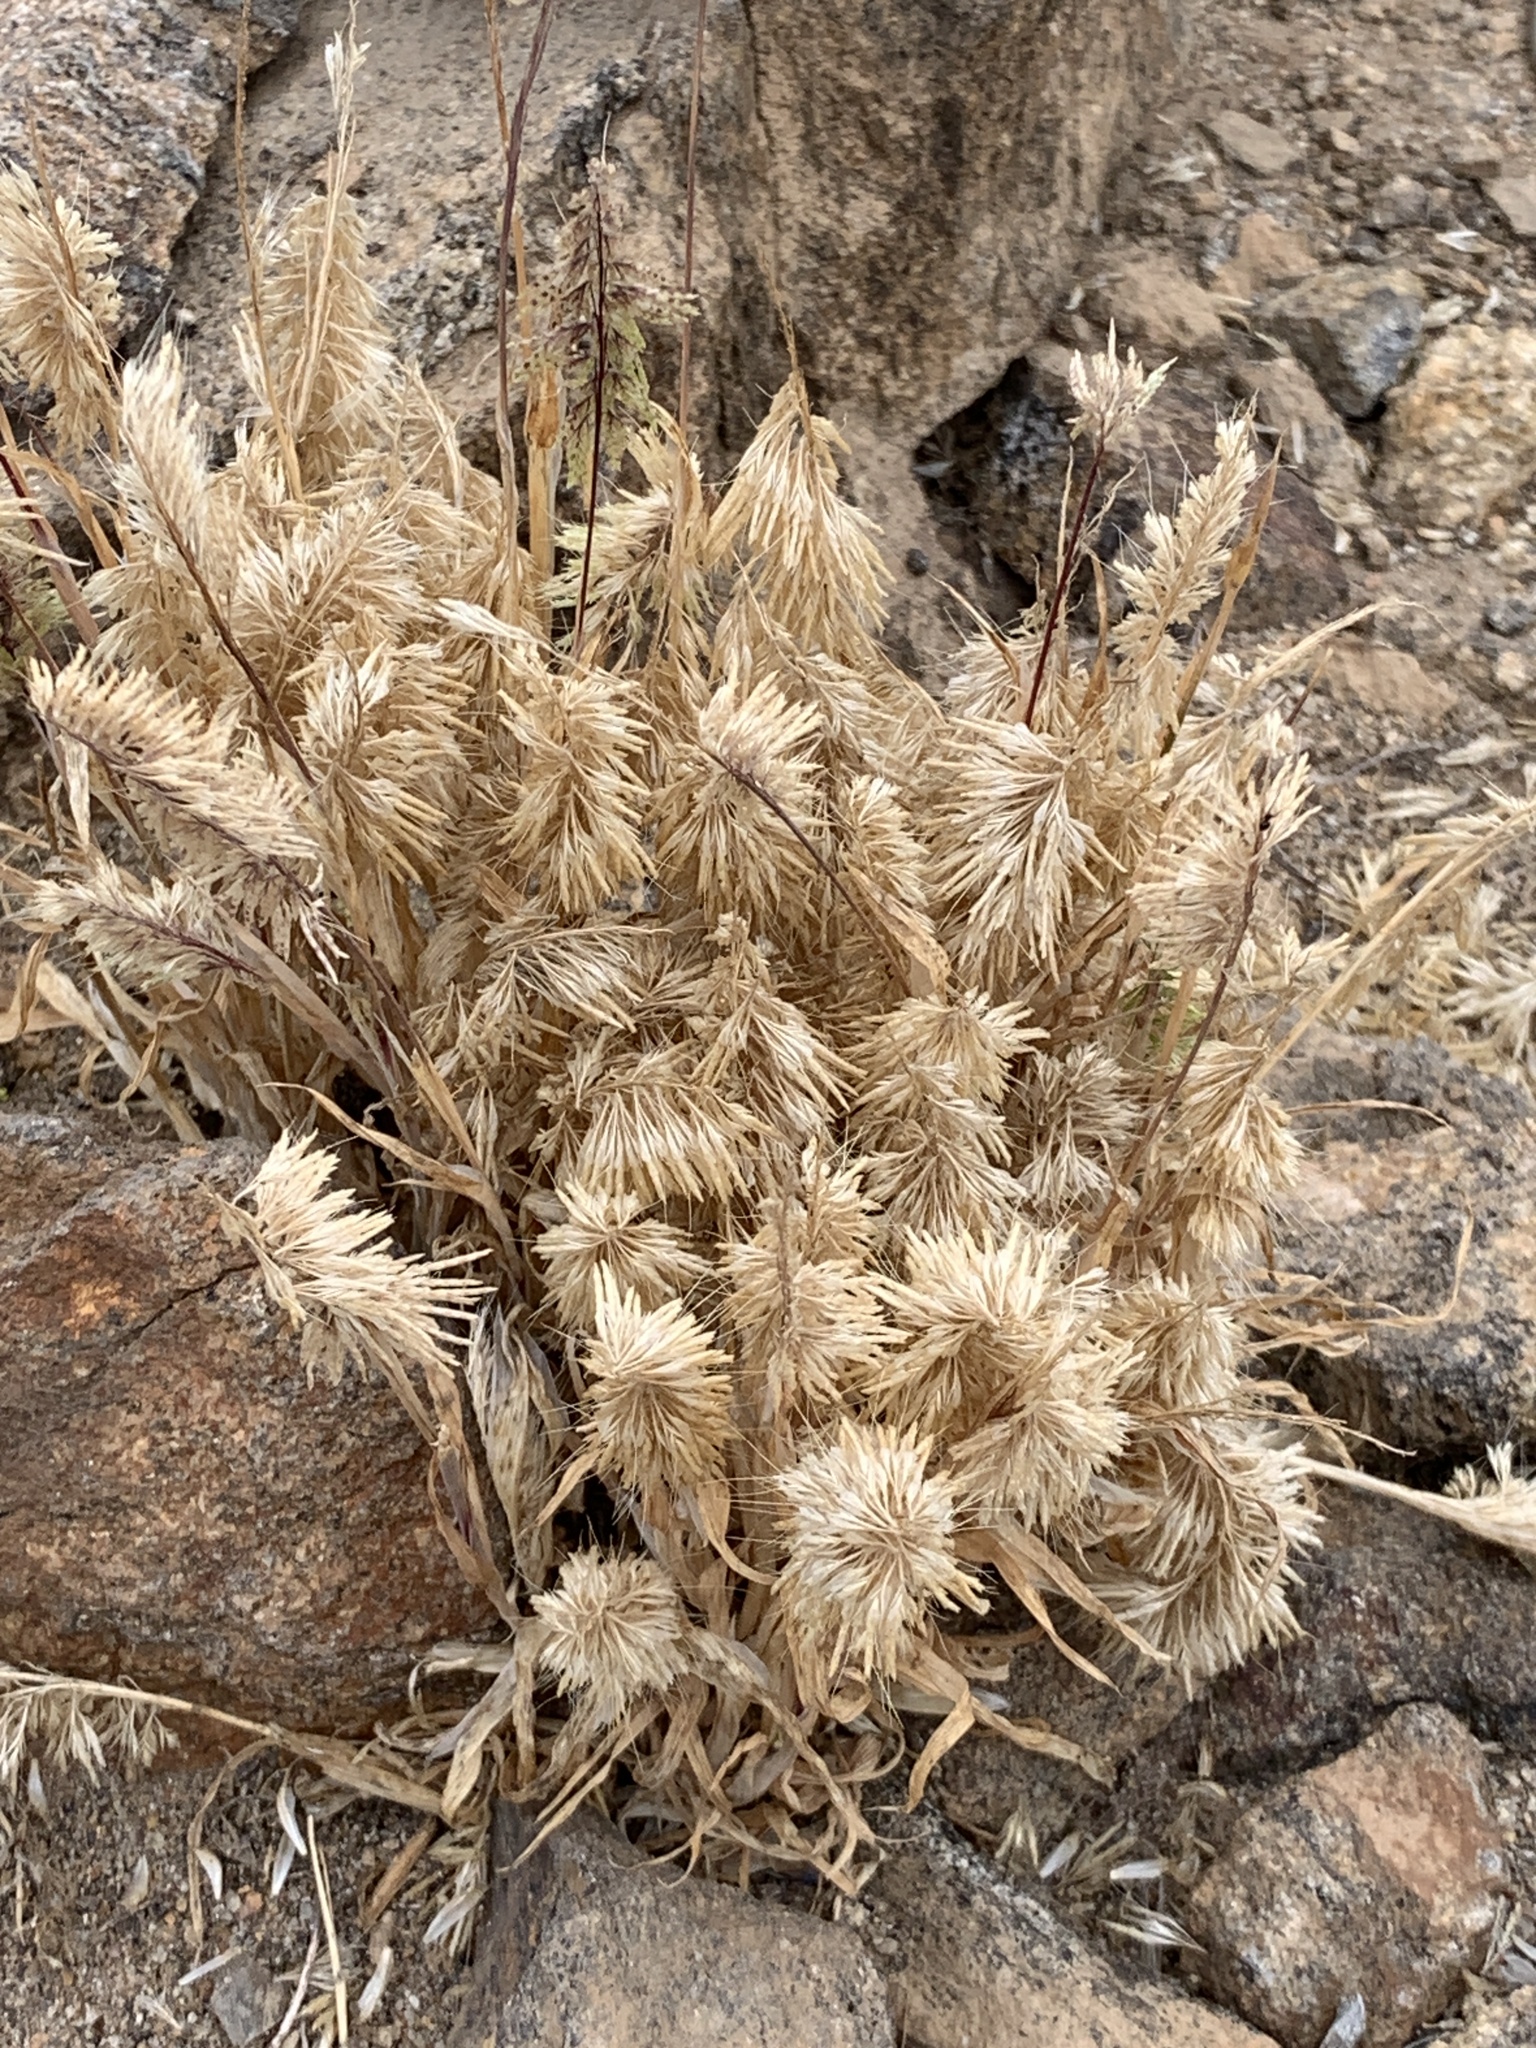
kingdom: Plantae
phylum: Tracheophyta
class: Liliopsida
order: Poales
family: Poaceae
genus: Lamarckia
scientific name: Lamarckia aurea
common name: Golden dog's-tail
